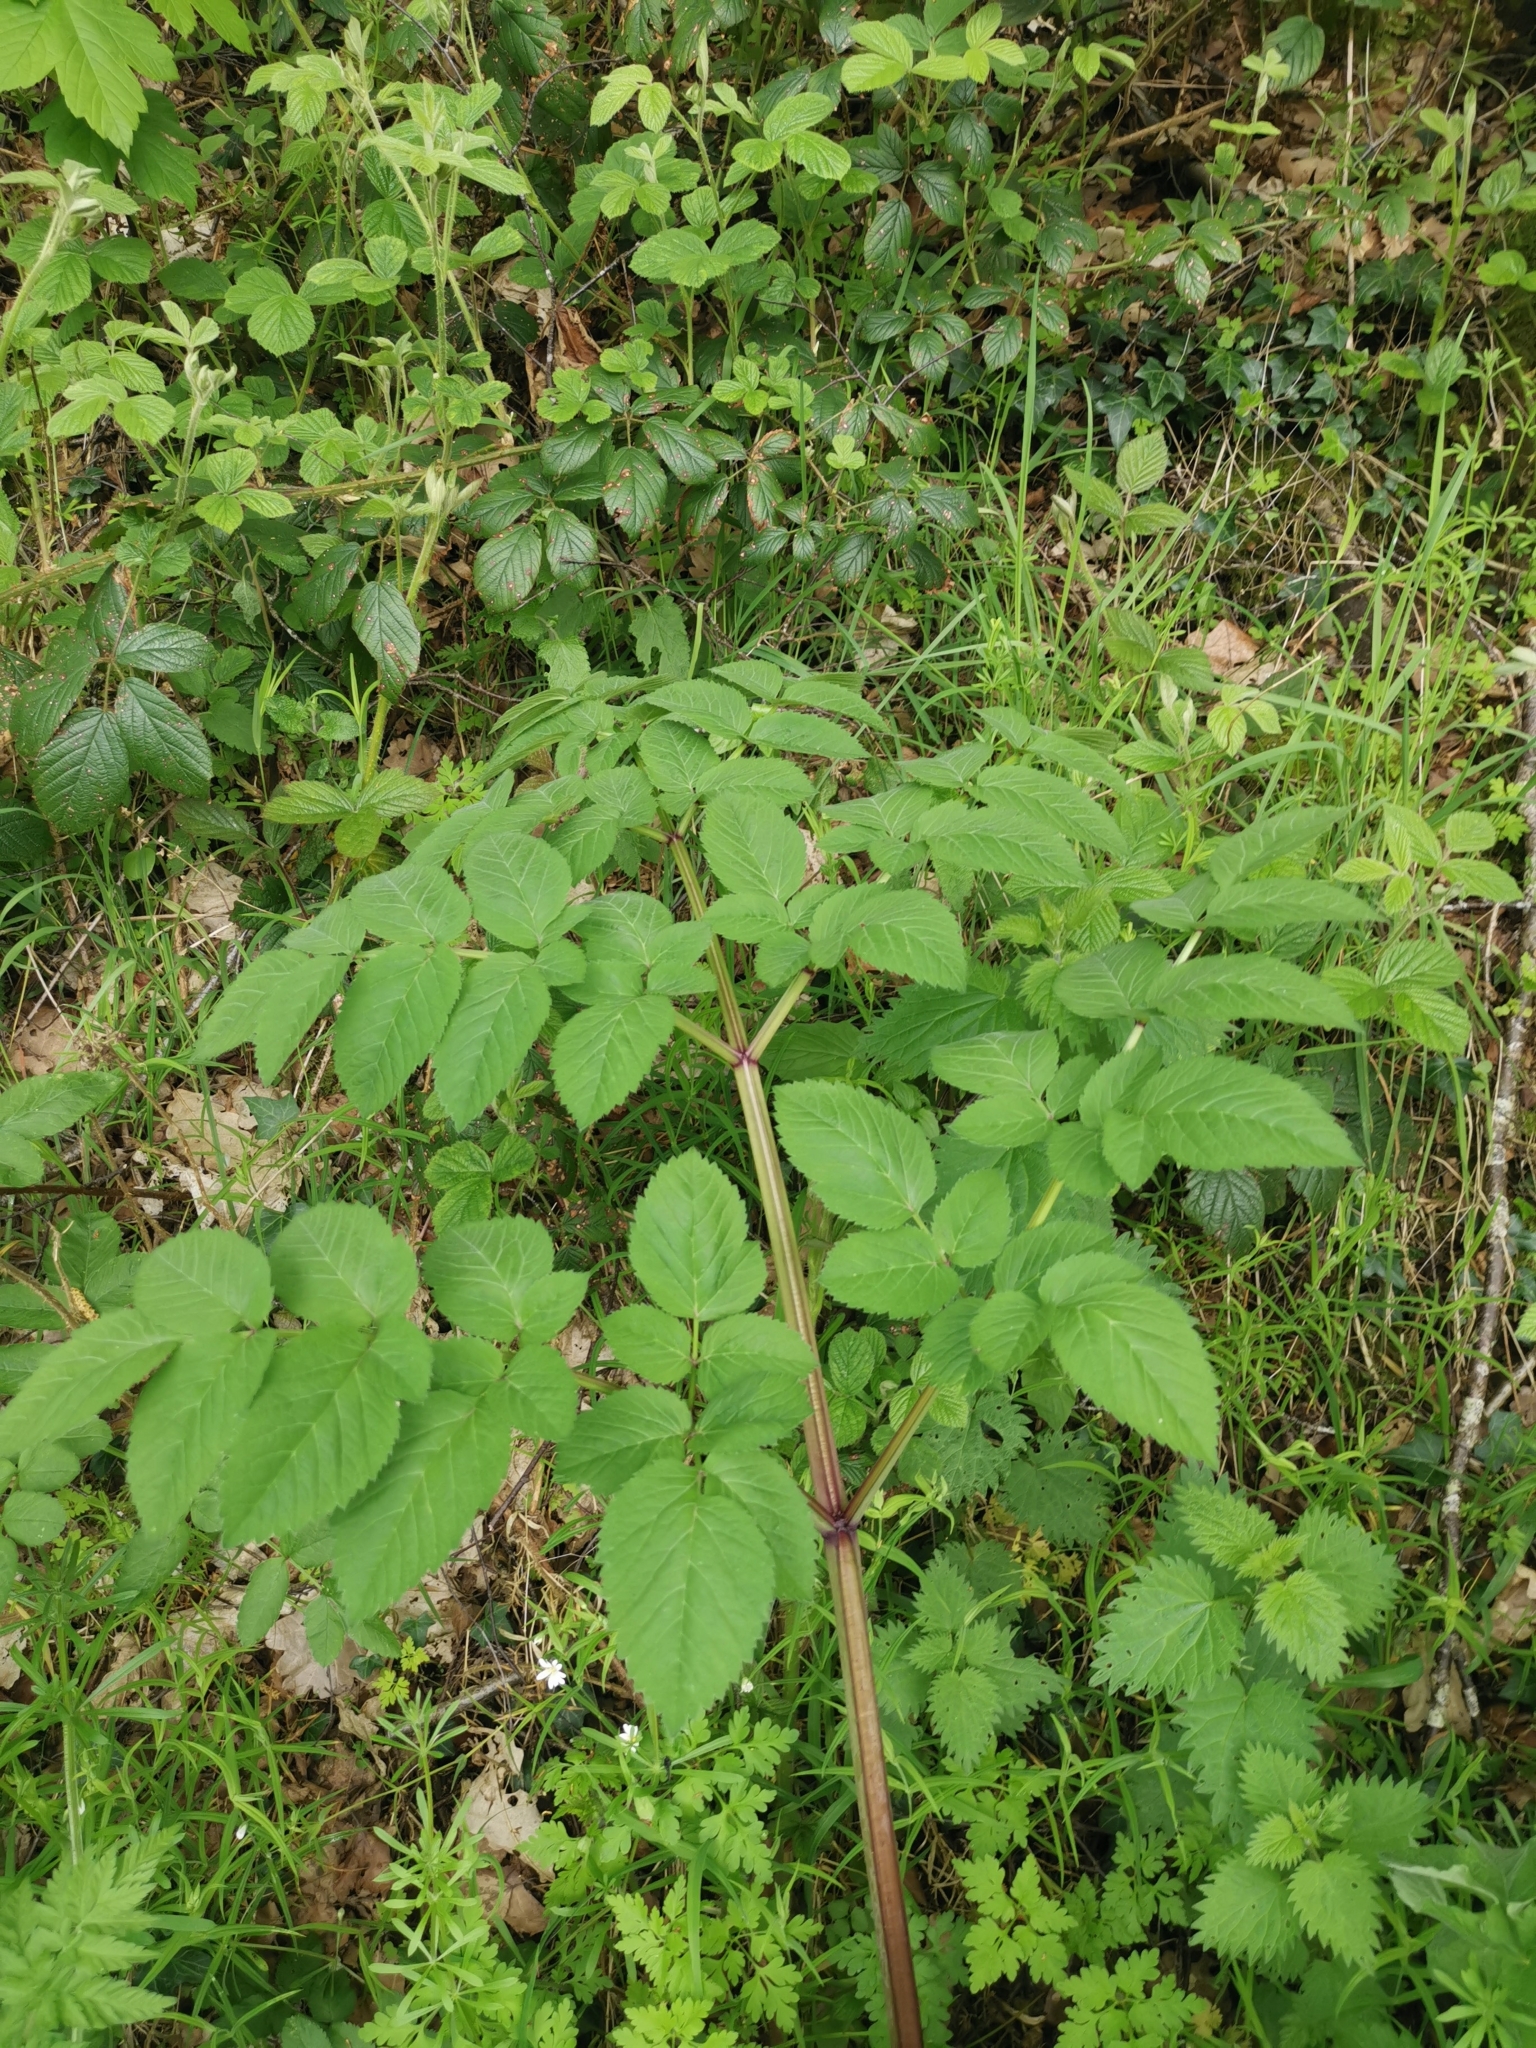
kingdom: Plantae
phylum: Tracheophyta
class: Magnoliopsida
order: Apiales
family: Apiaceae
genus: Angelica
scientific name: Angelica sylvestris
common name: Wild angelica
